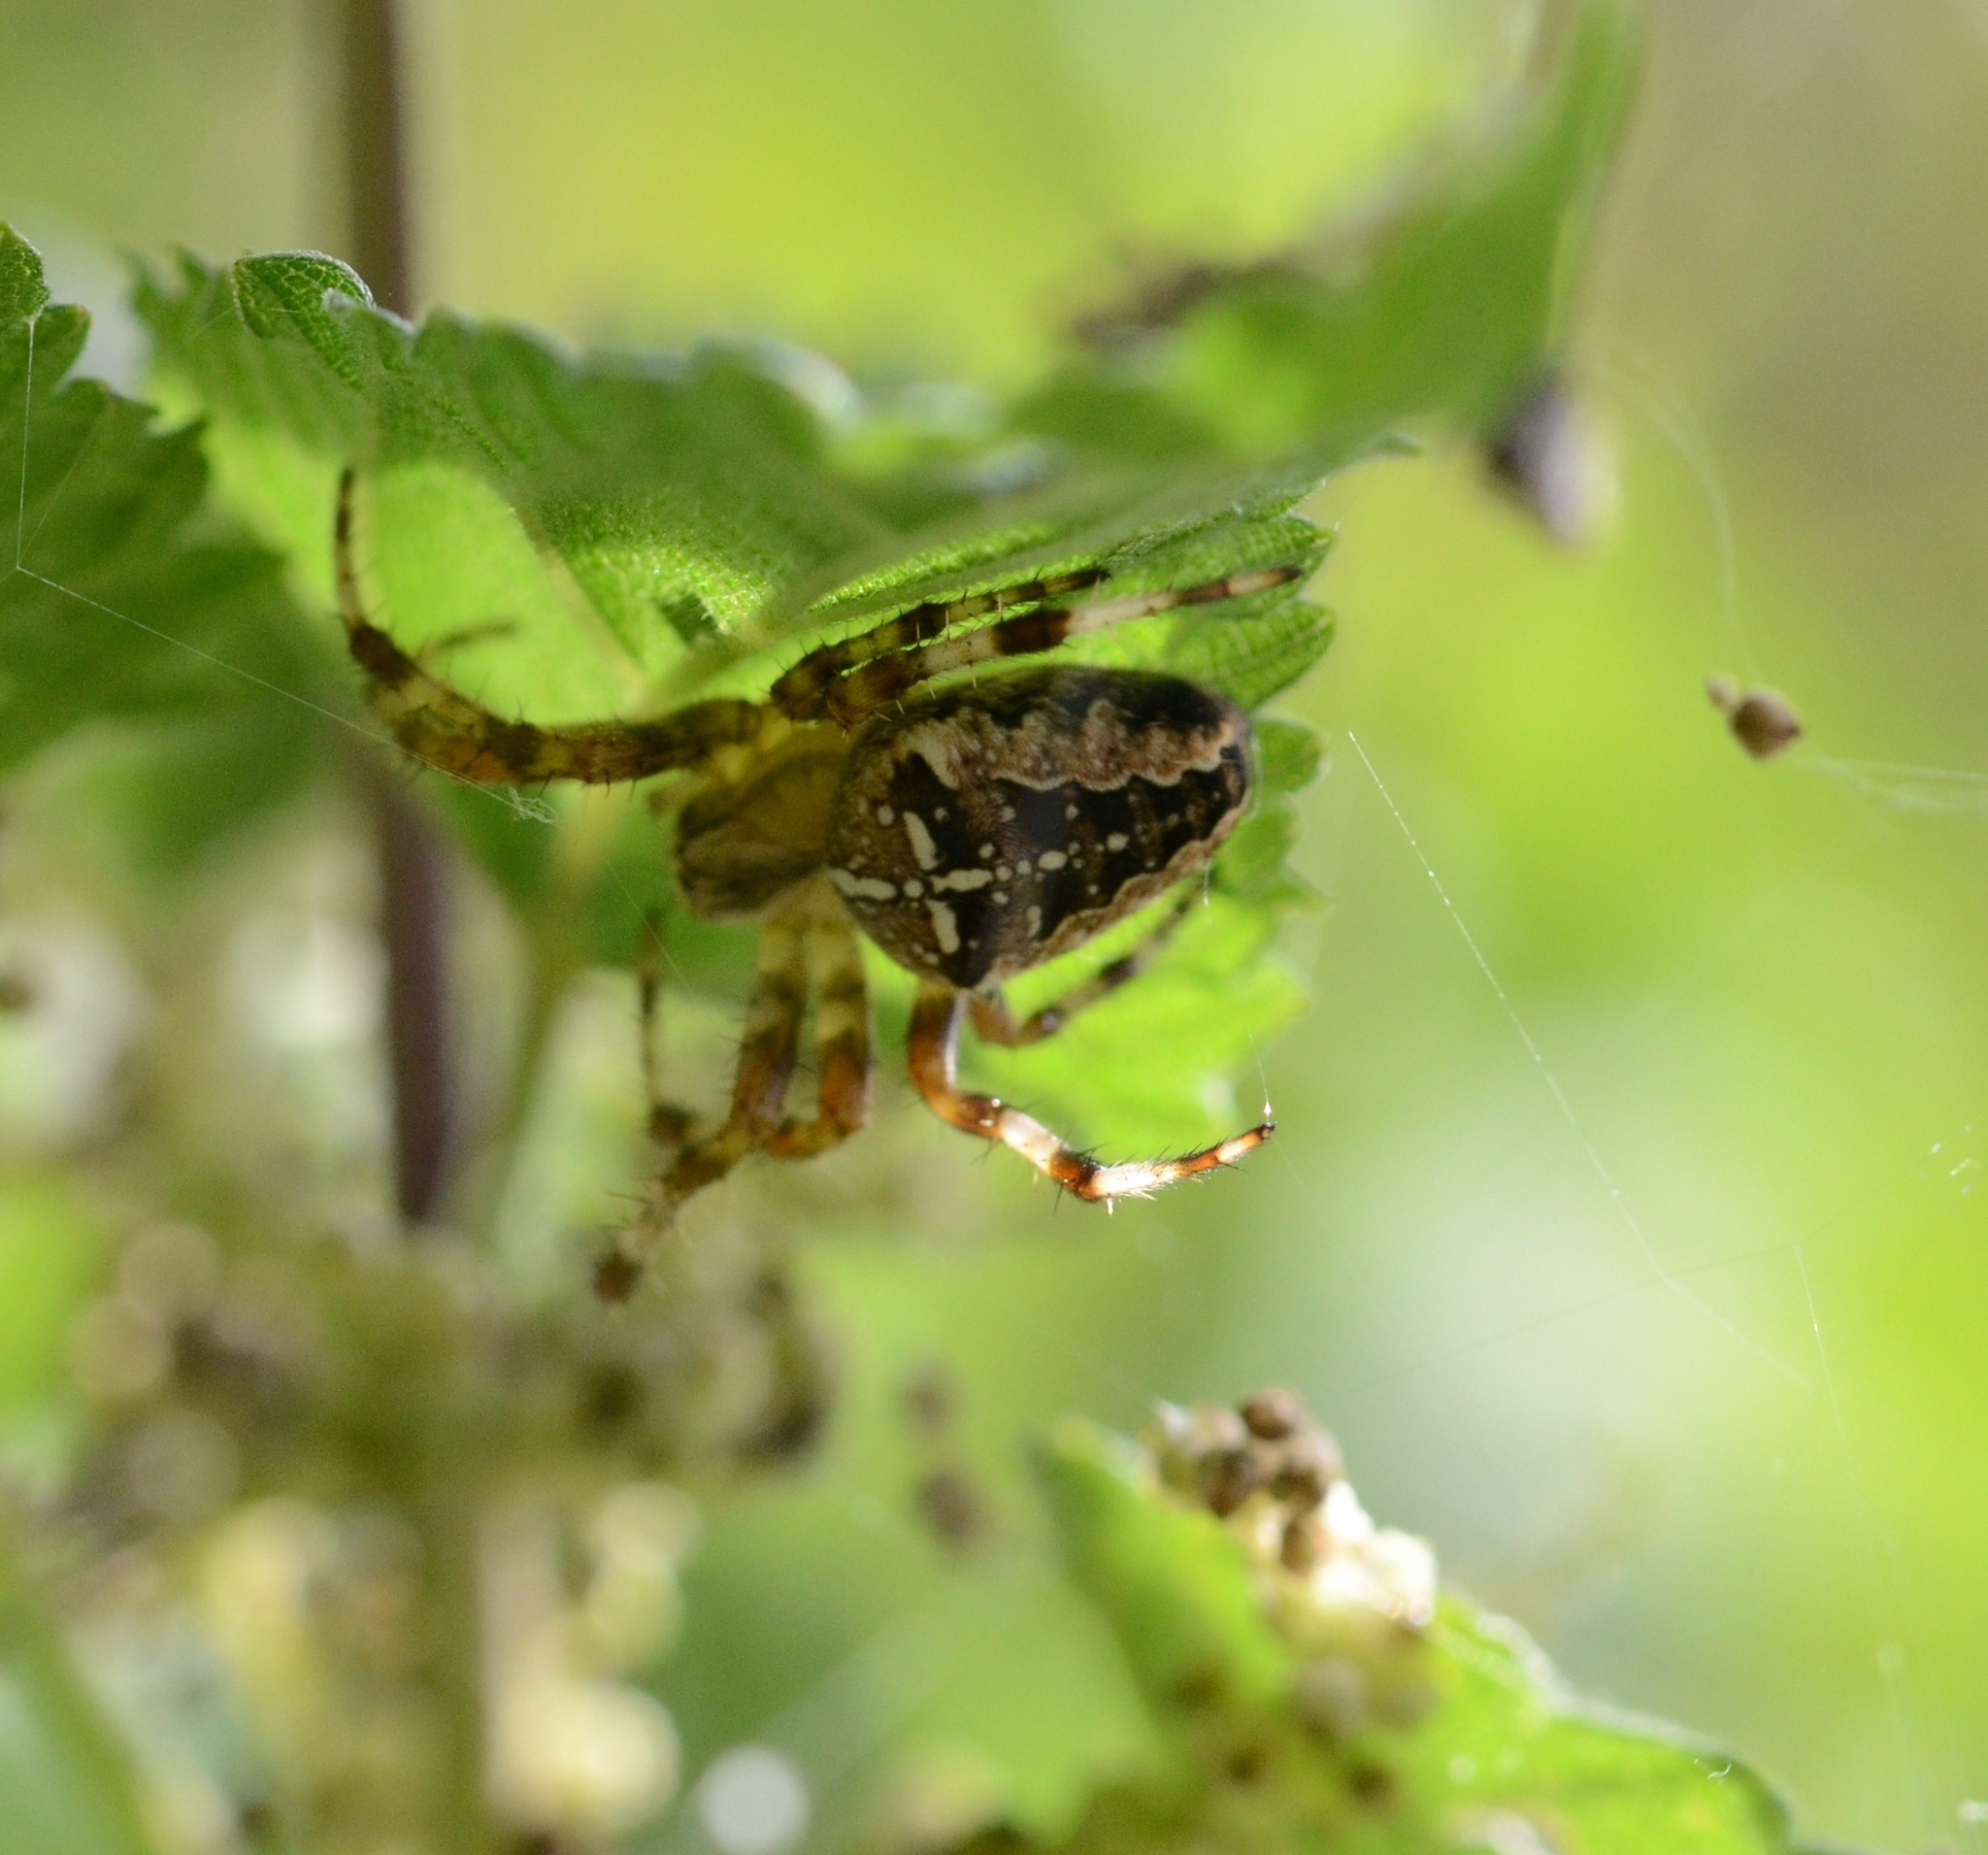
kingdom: Animalia
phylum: Arthropoda
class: Arachnida
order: Araneae
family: Araneidae
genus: Araneus
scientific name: Araneus diadematus
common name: Cross orbweaver
